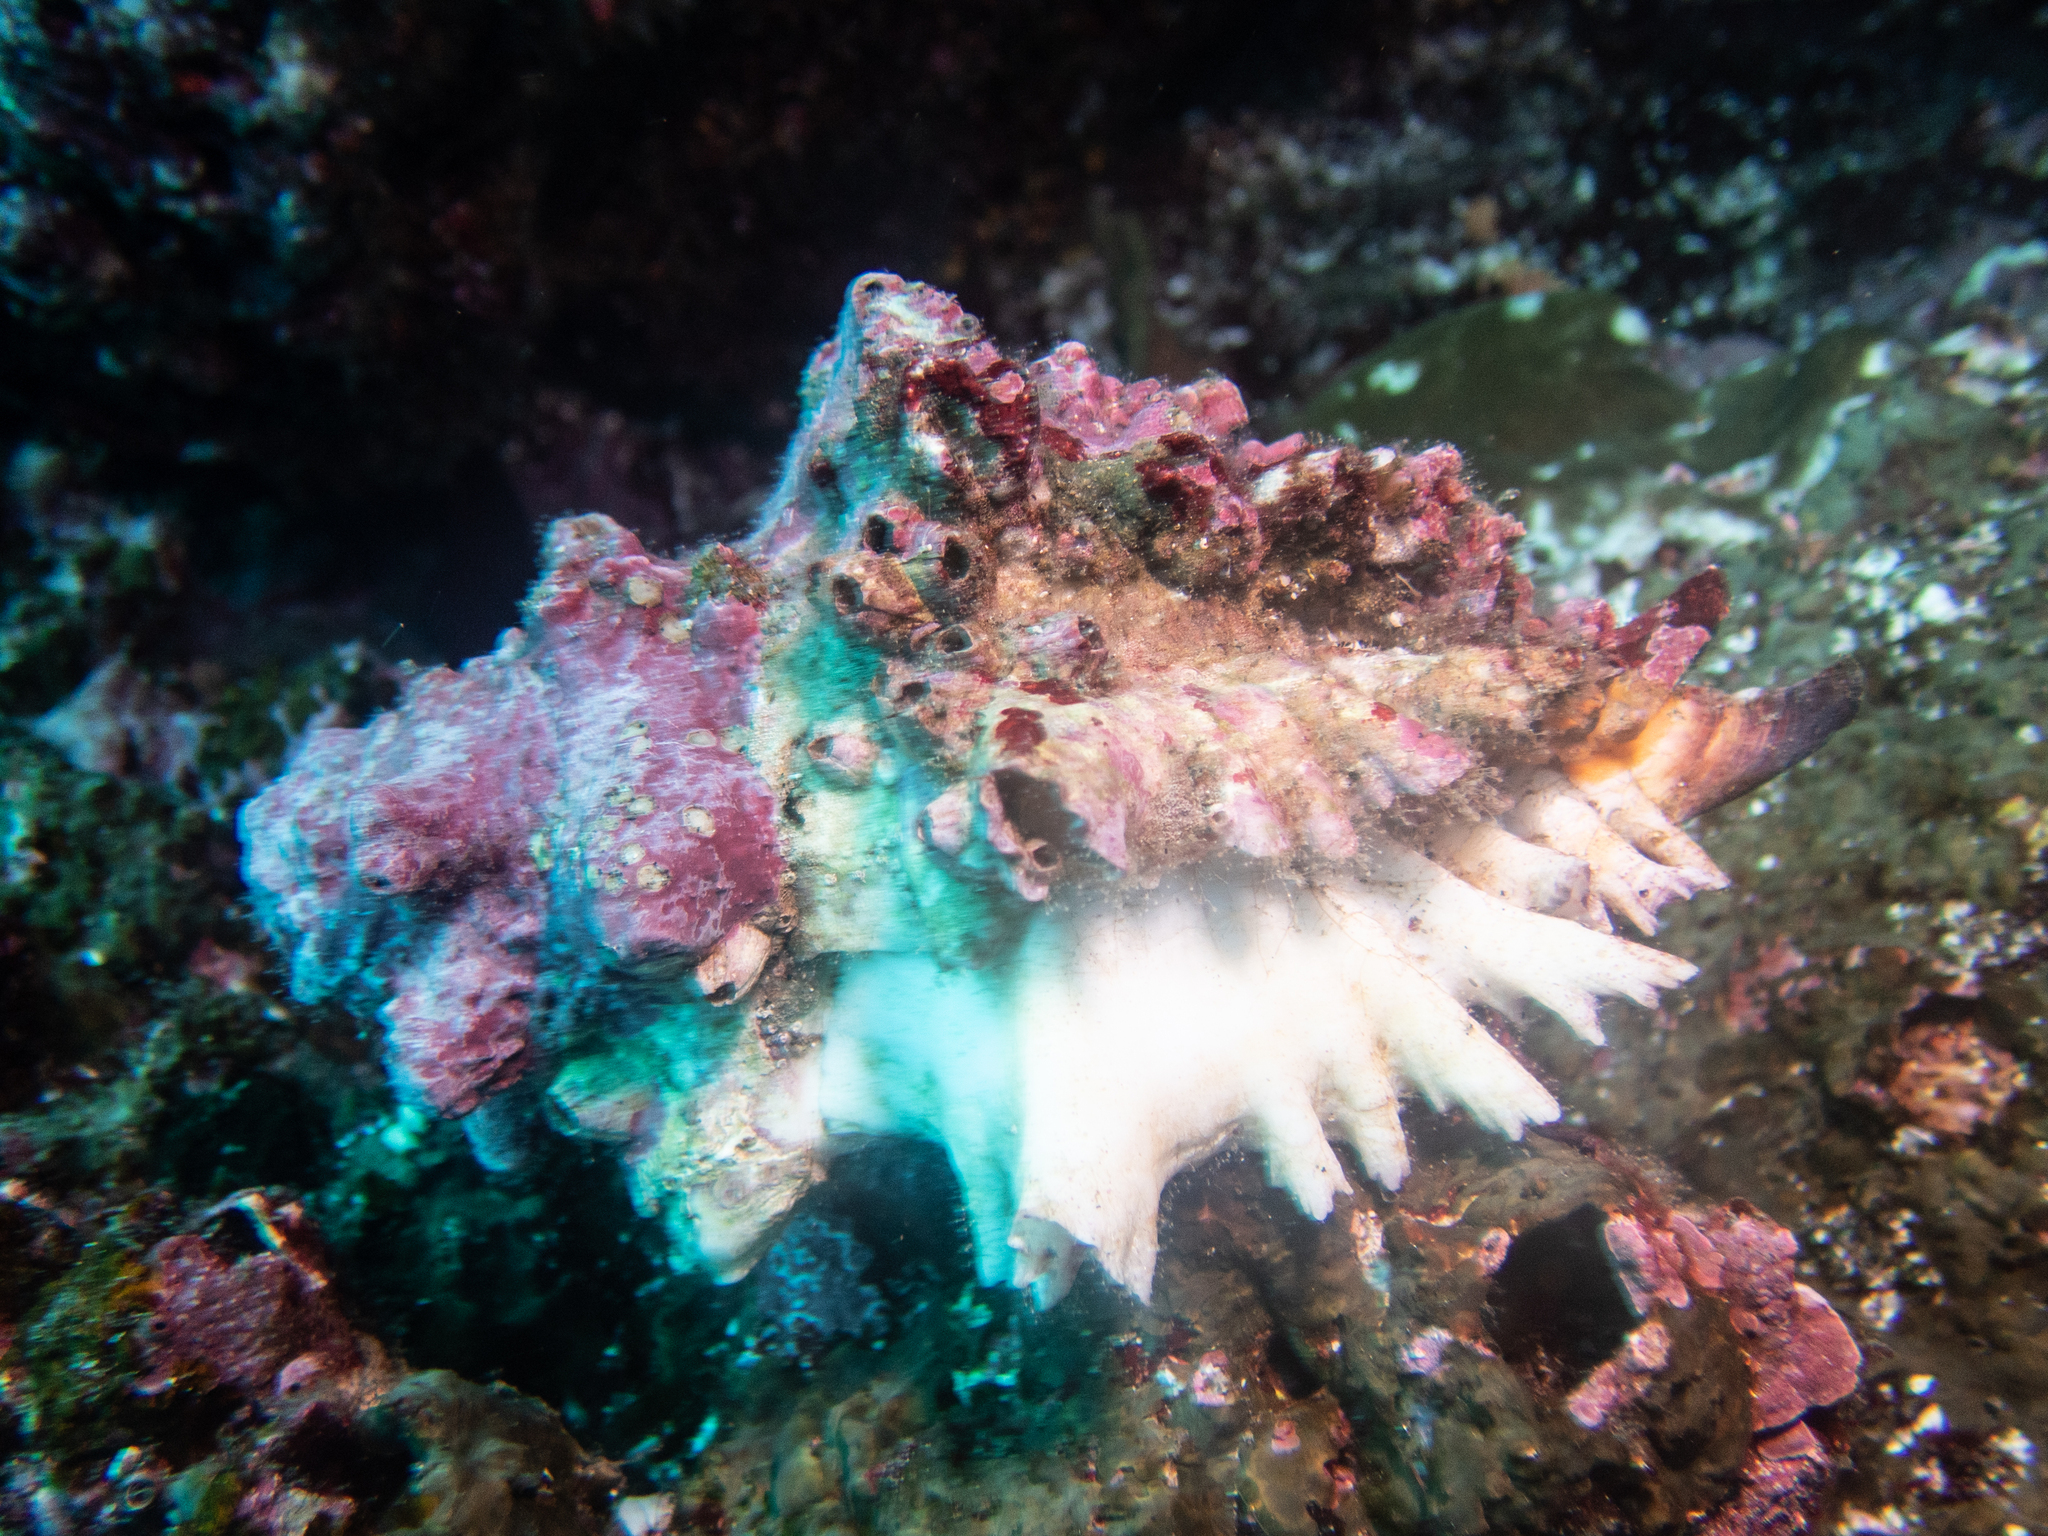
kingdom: Animalia
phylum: Mollusca
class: Gastropoda
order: Neogastropoda
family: Muricidae
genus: Hexaplex
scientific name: Hexaplex princeps
